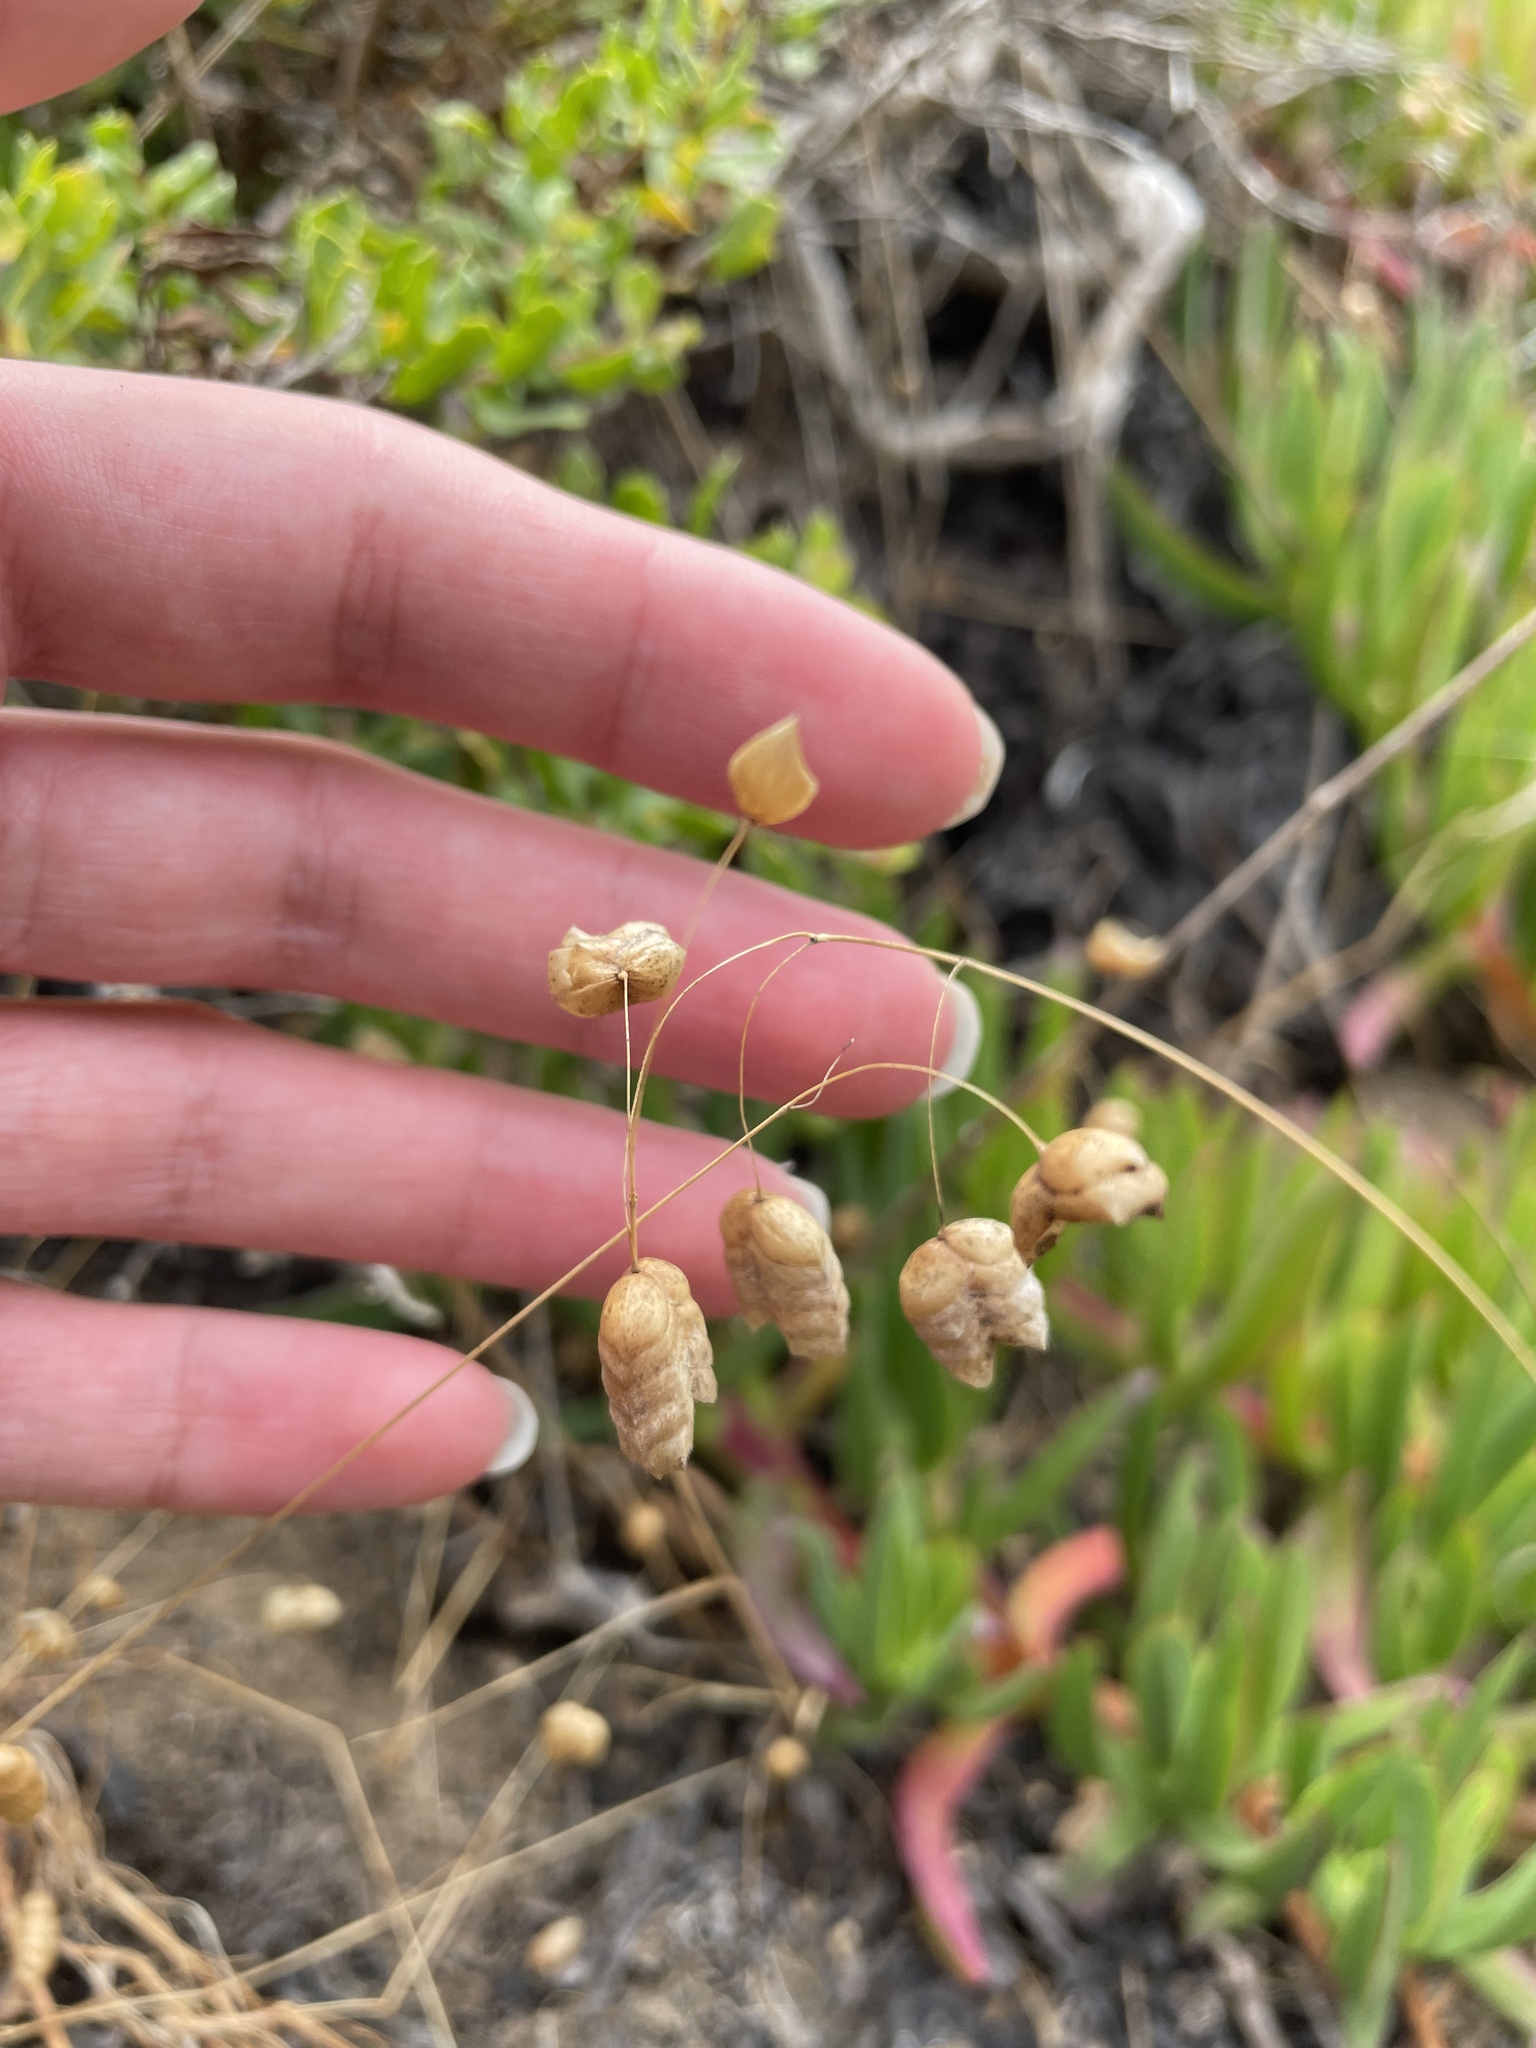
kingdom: Plantae
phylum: Tracheophyta
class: Liliopsida
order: Poales
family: Poaceae
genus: Briza
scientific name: Briza maxima
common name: Big quakinggrass
